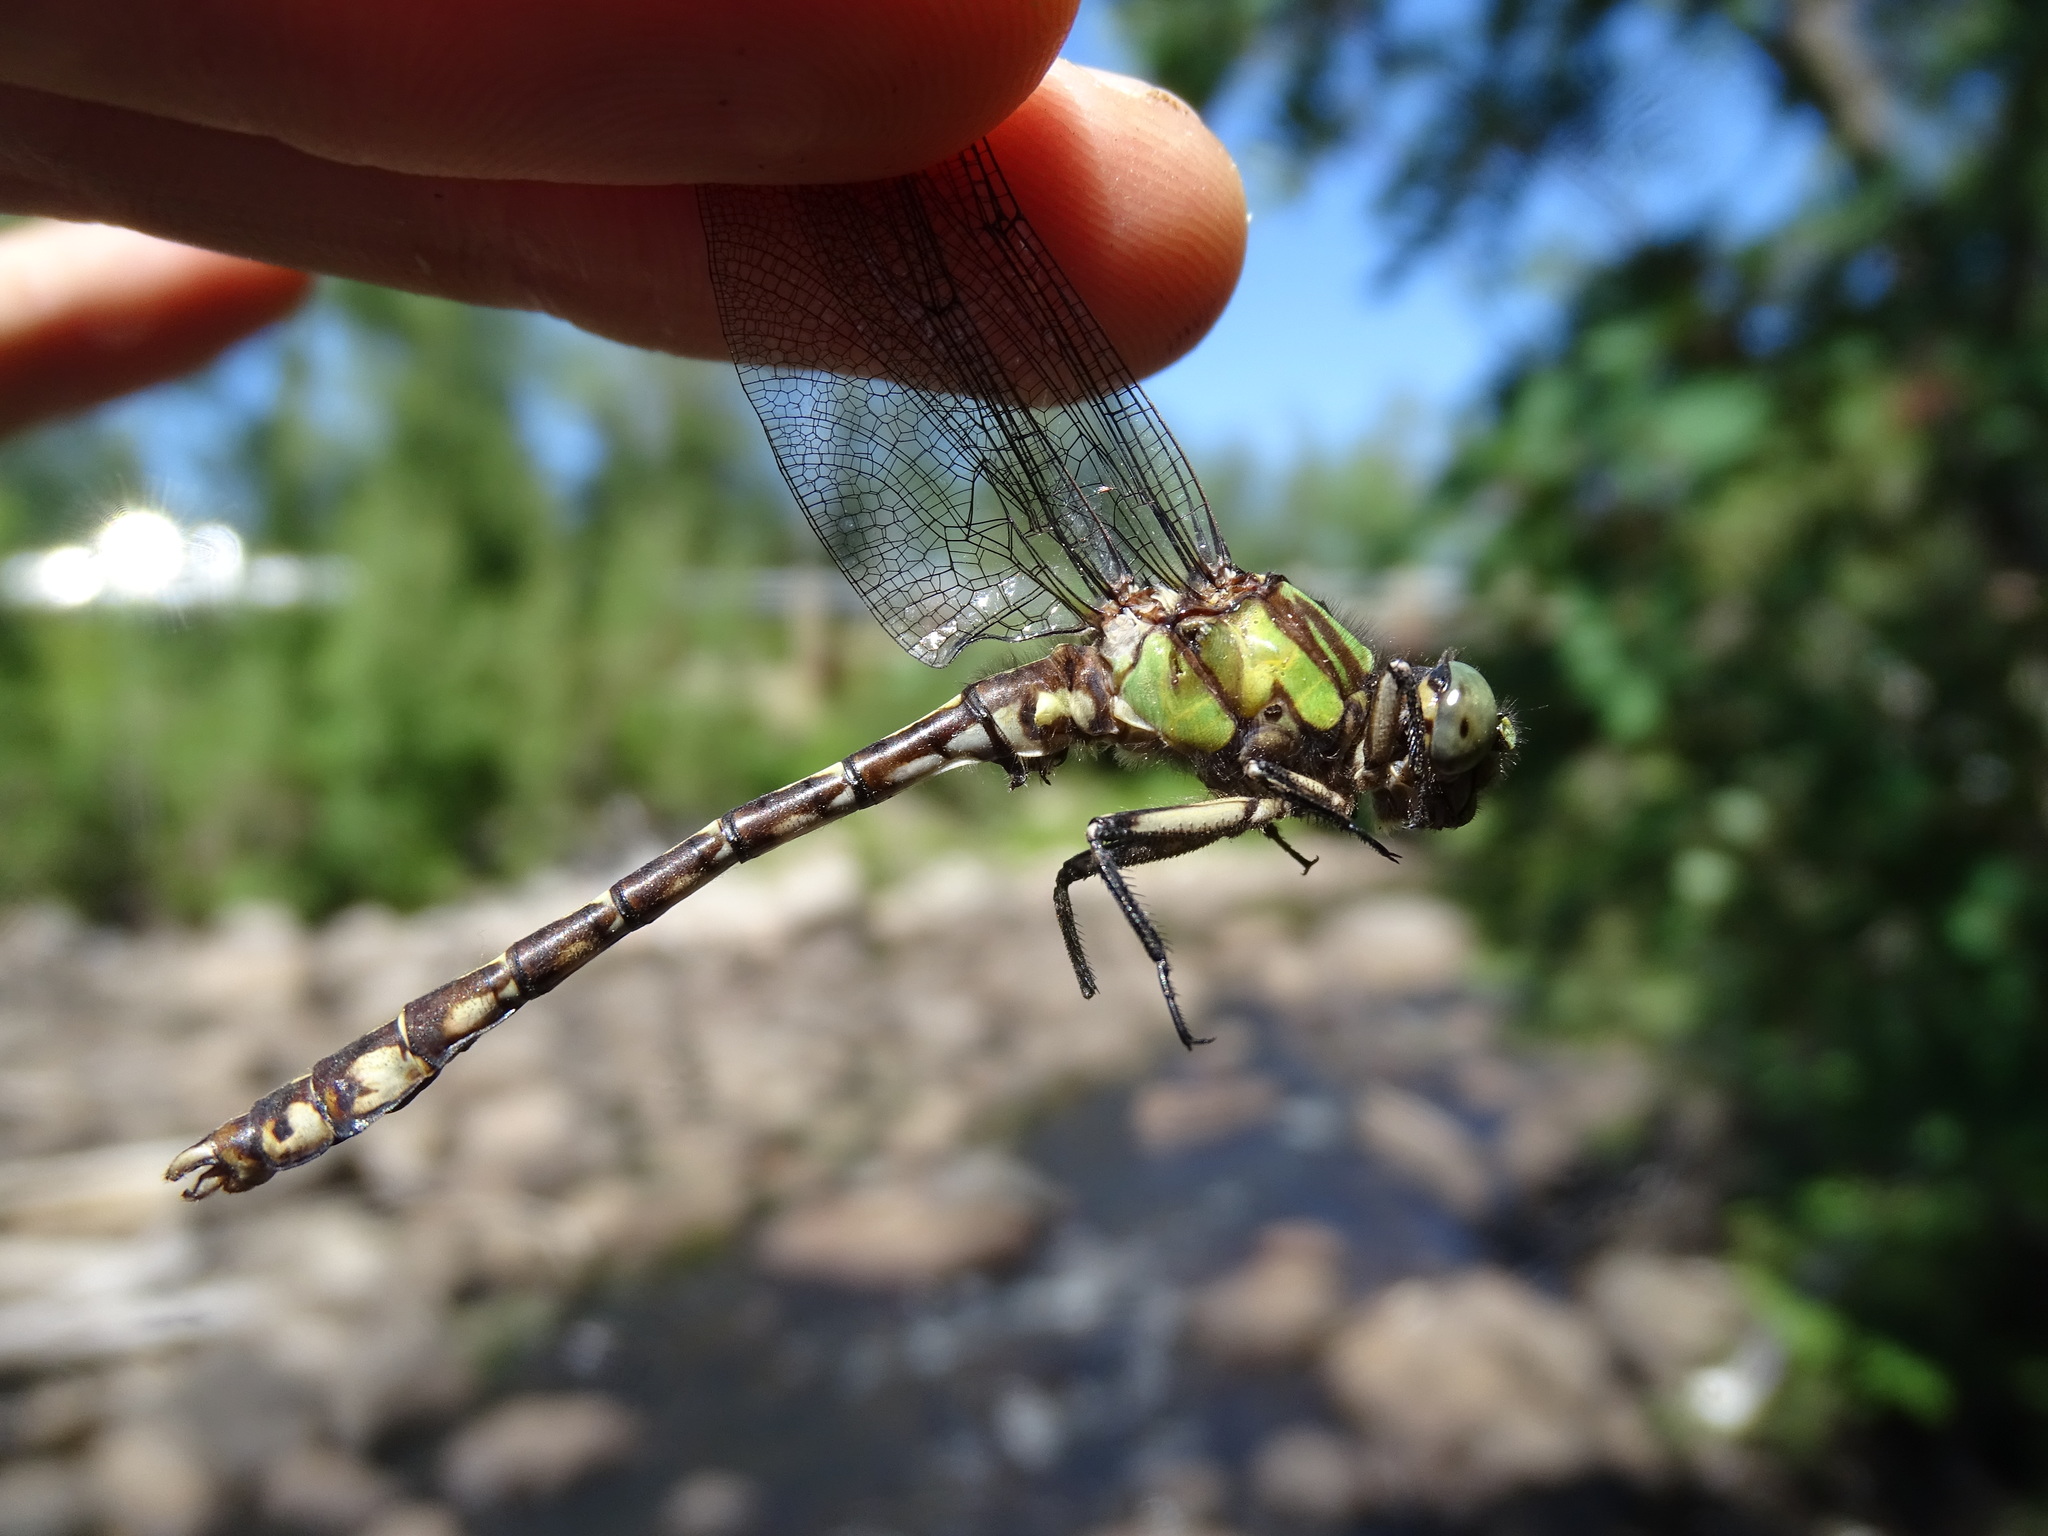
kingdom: Animalia
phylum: Arthropoda
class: Insecta
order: Odonata
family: Gomphidae
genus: Ophiogomphus
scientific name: Ophiogomphus colubrinus
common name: Boreal snaketail
